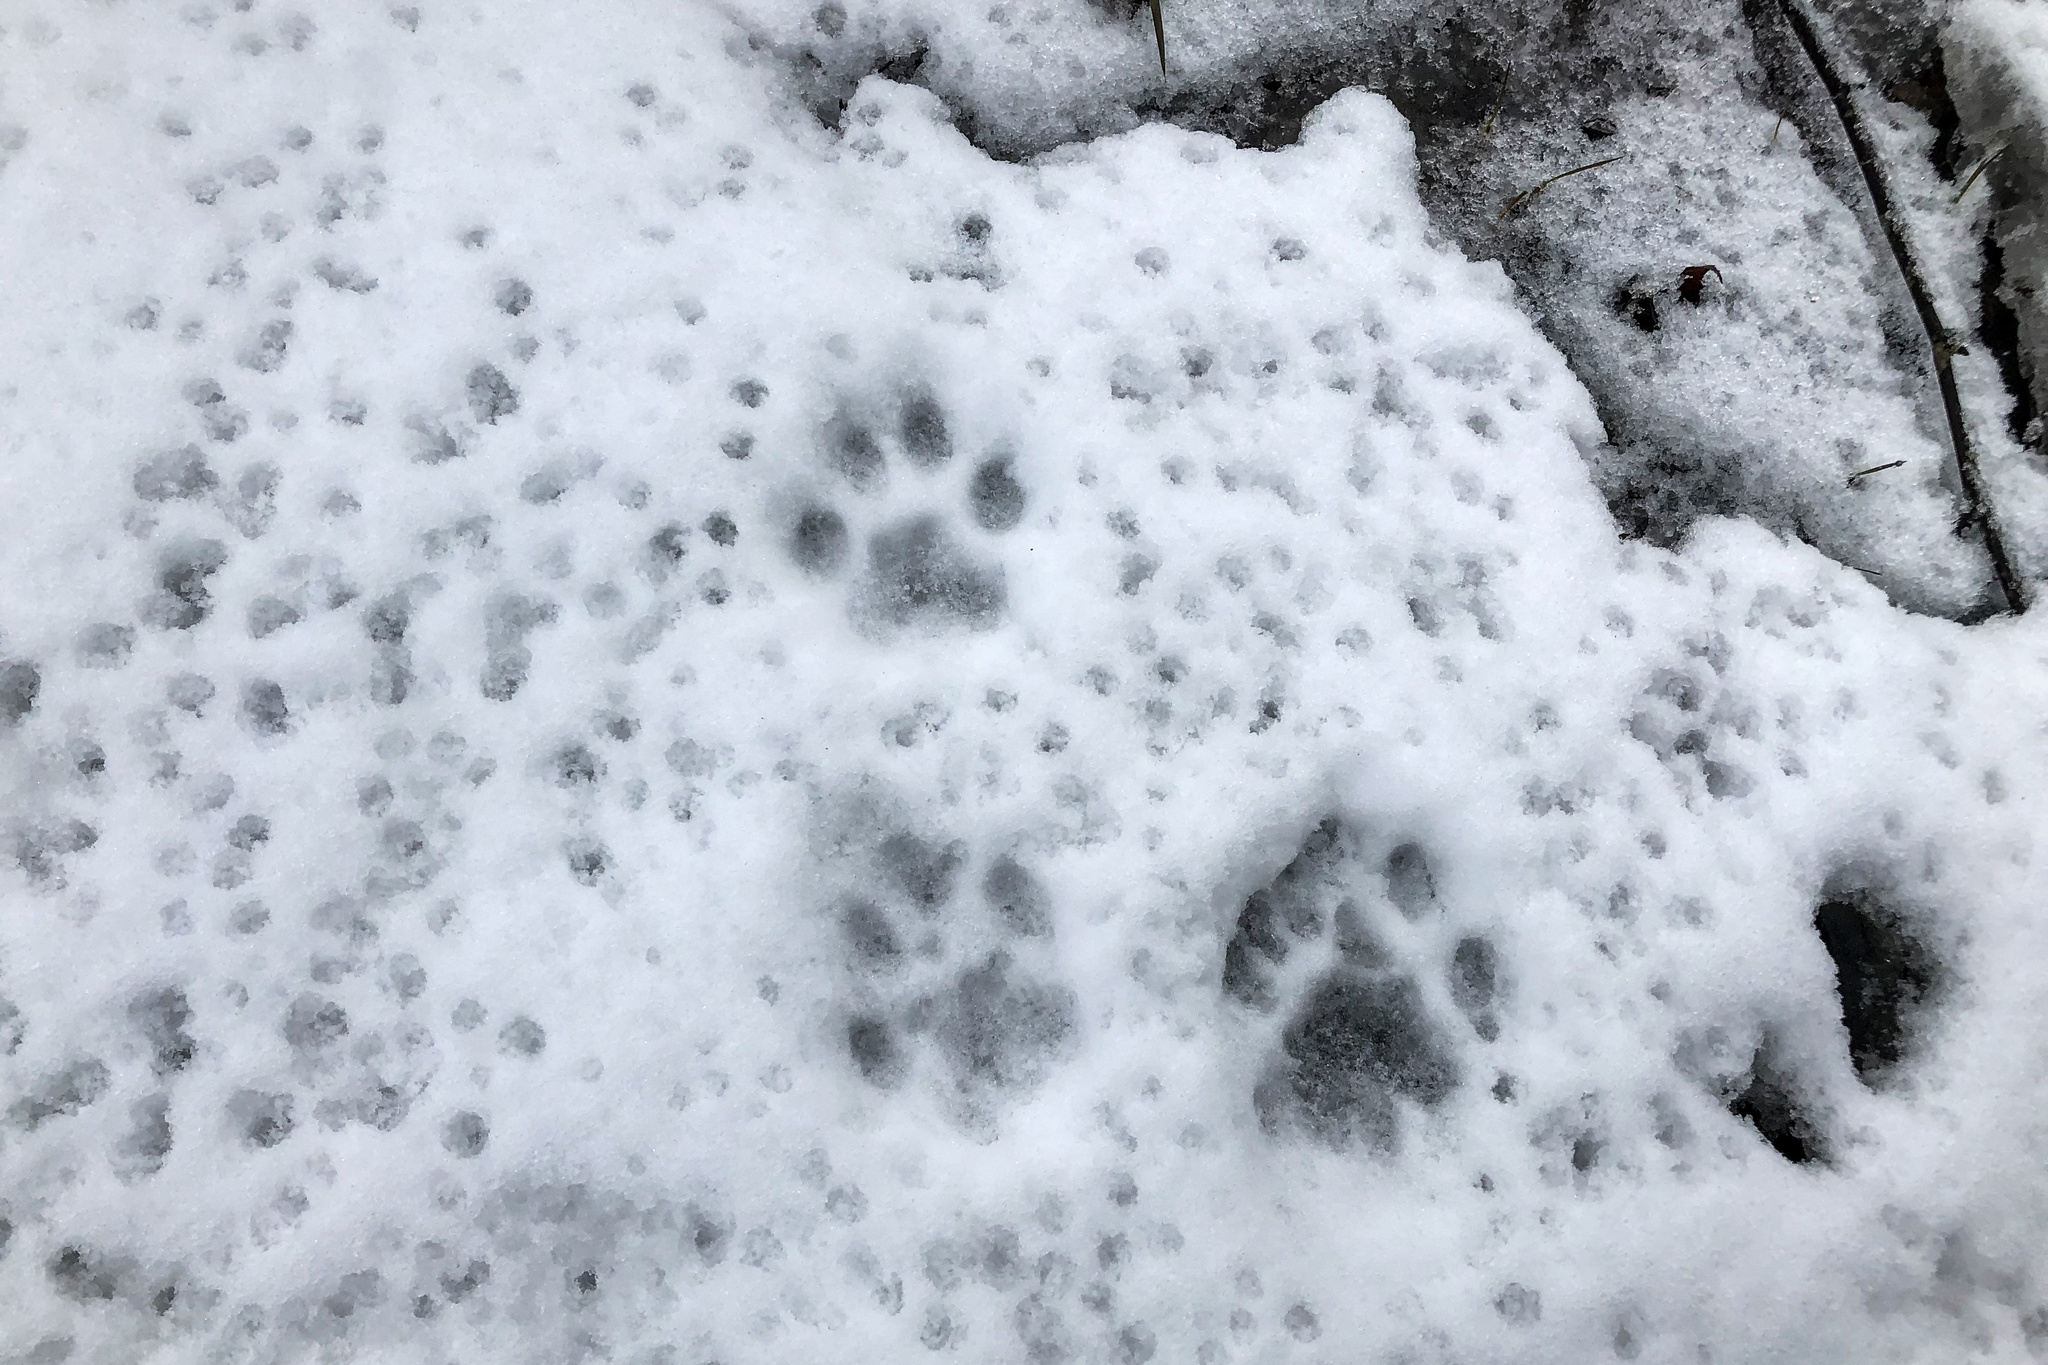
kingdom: Animalia
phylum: Chordata
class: Mammalia
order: Carnivora
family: Felidae
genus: Lynx
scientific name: Lynx lynx
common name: Eurasian lynx
